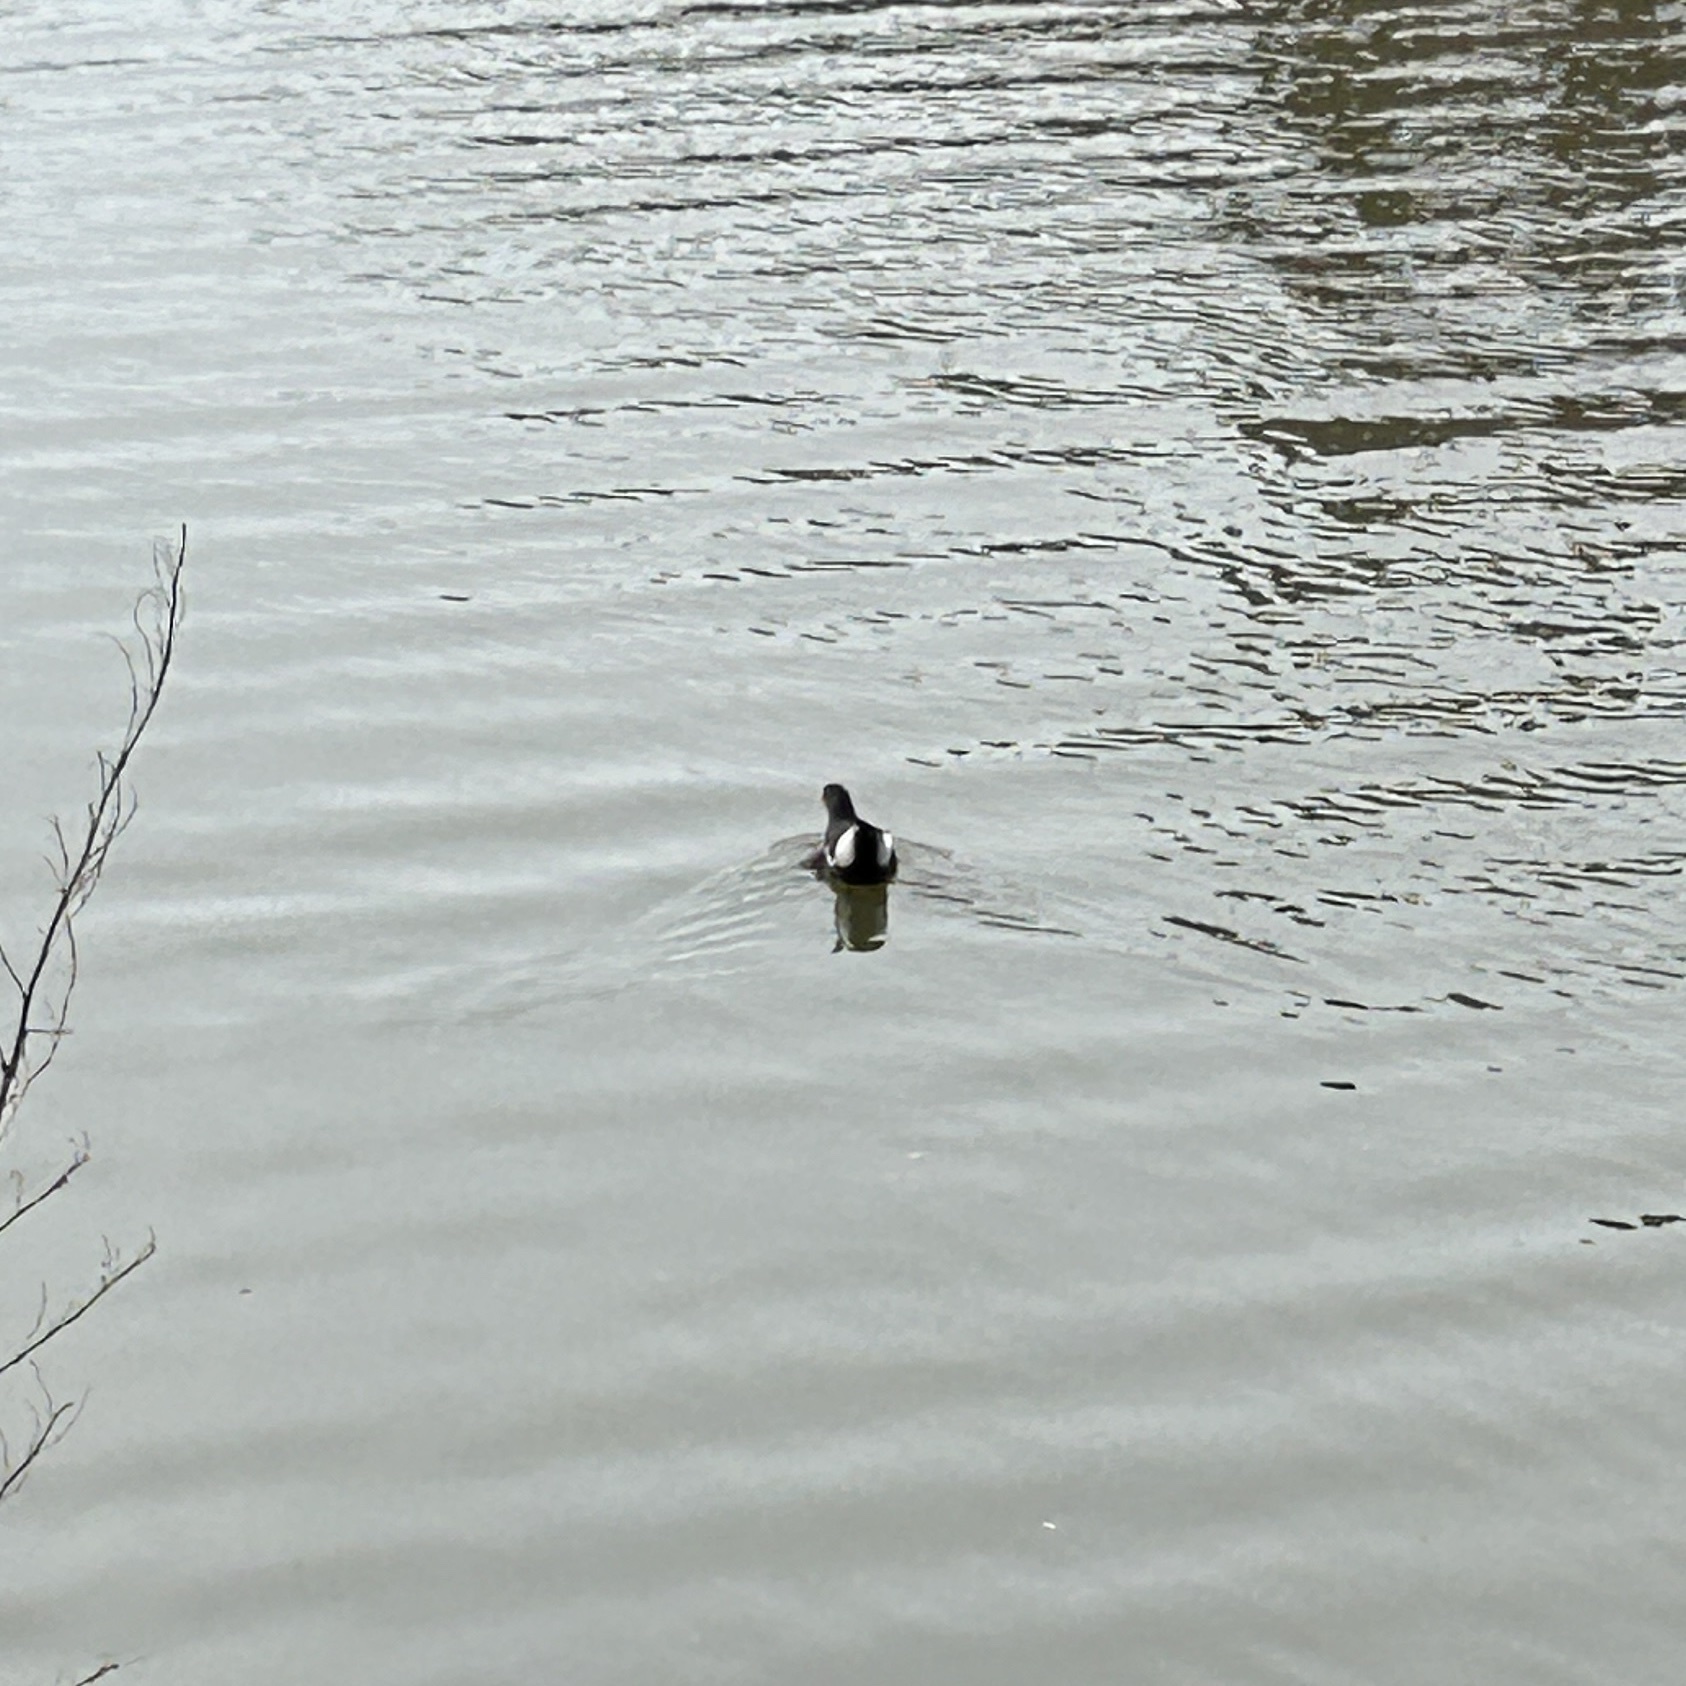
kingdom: Animalia
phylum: Chordata
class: Aves
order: Gruiformes
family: Rallidae
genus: Gallinula
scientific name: Gallinula chloropus
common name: Common moorhen
